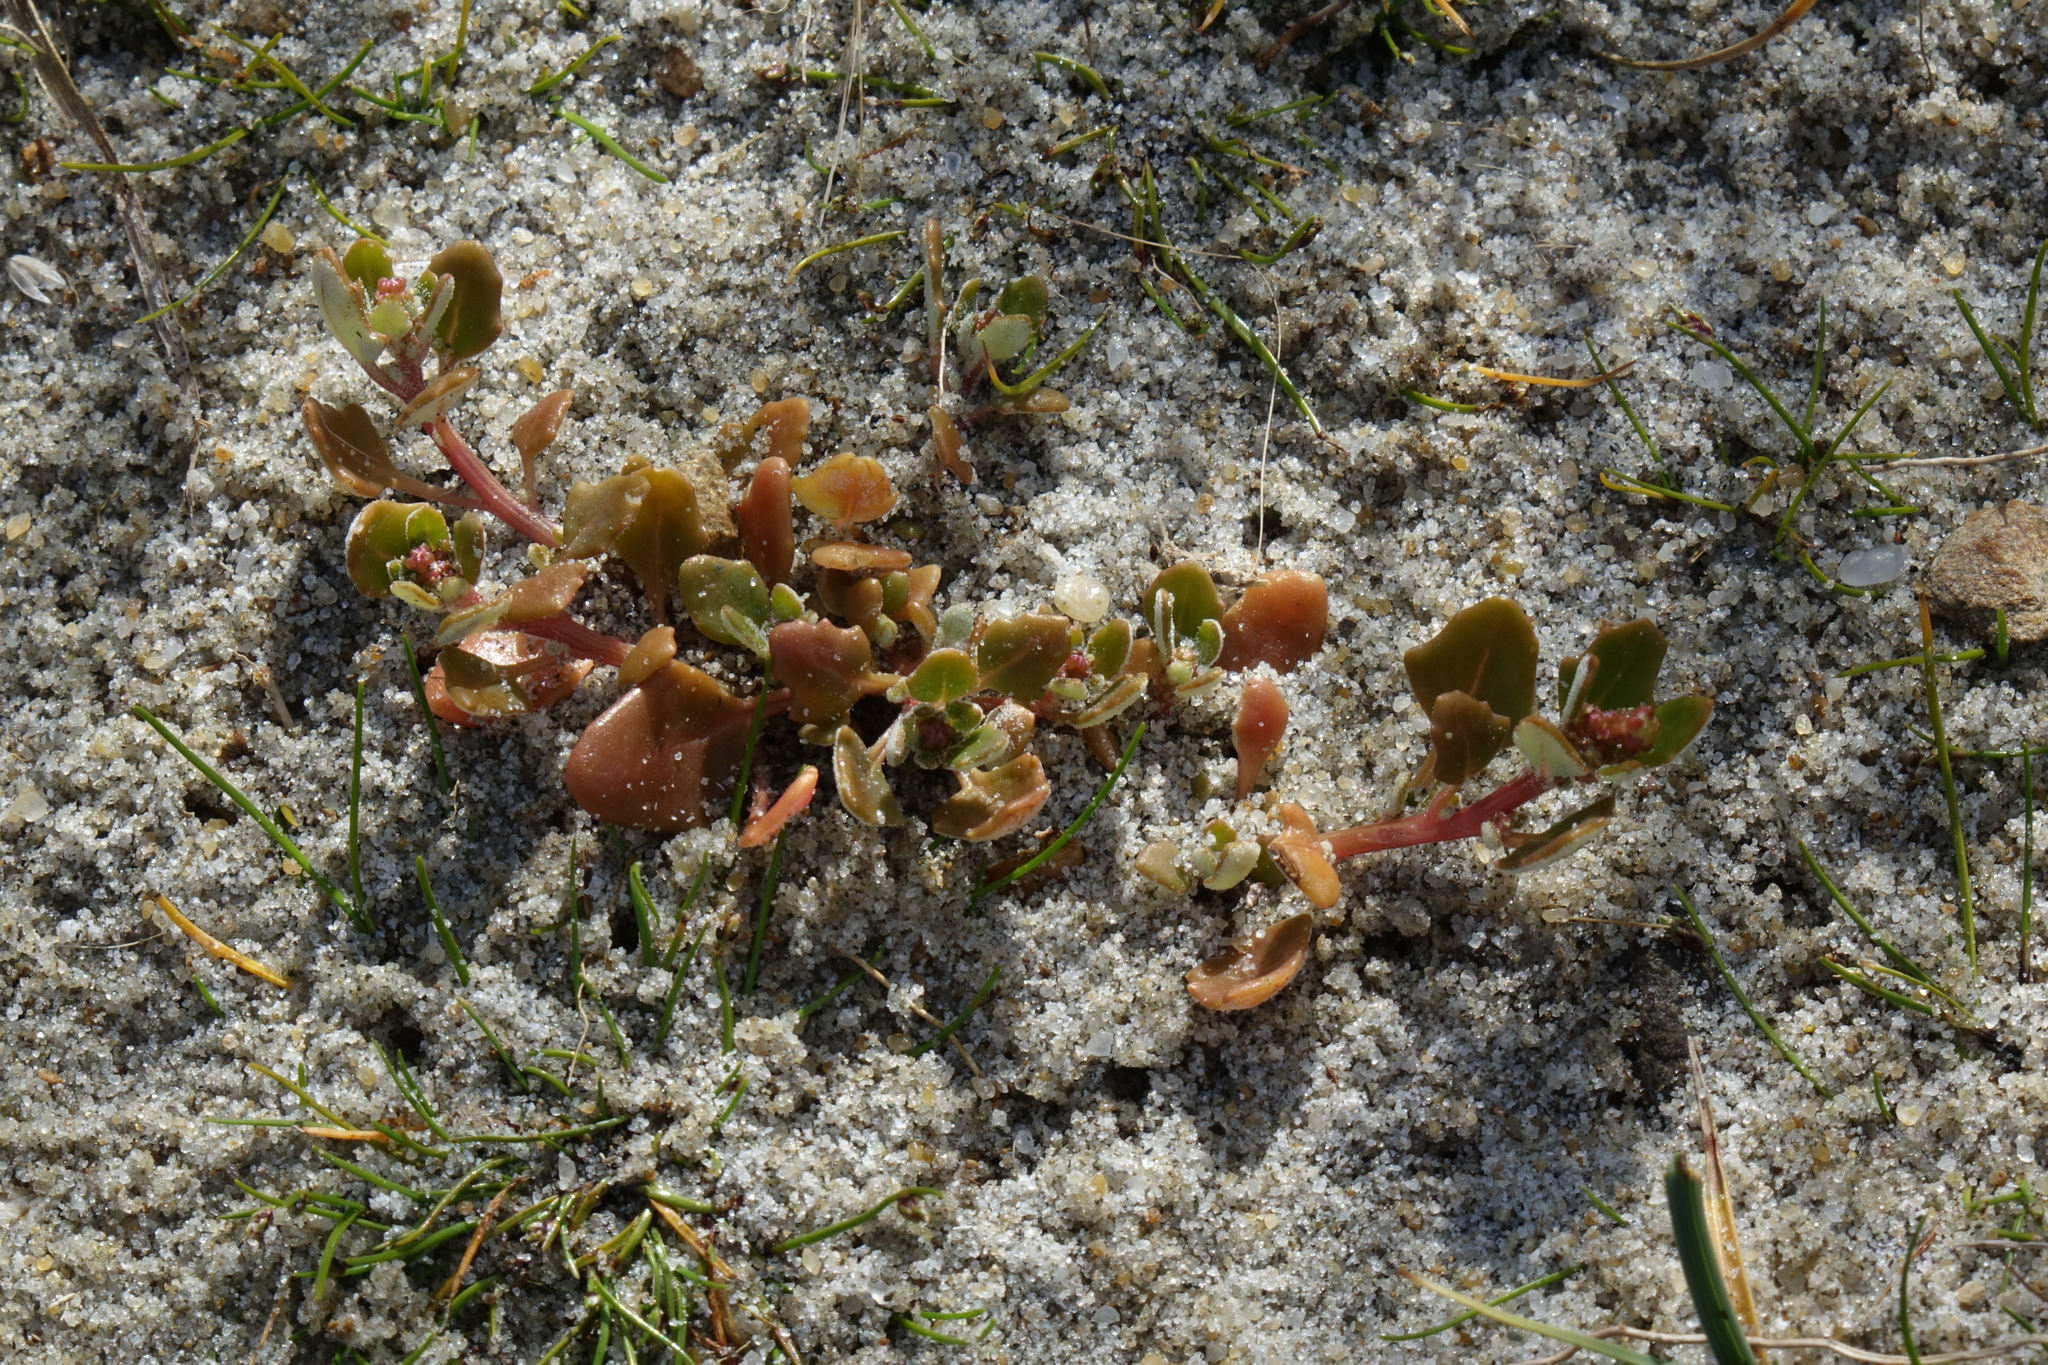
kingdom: Plantae
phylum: Tracheophyta
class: Magnoliopsida
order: Caryophyllales
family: Amaranthaceae
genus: Oxybasis
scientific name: Oxybasis ambigua
